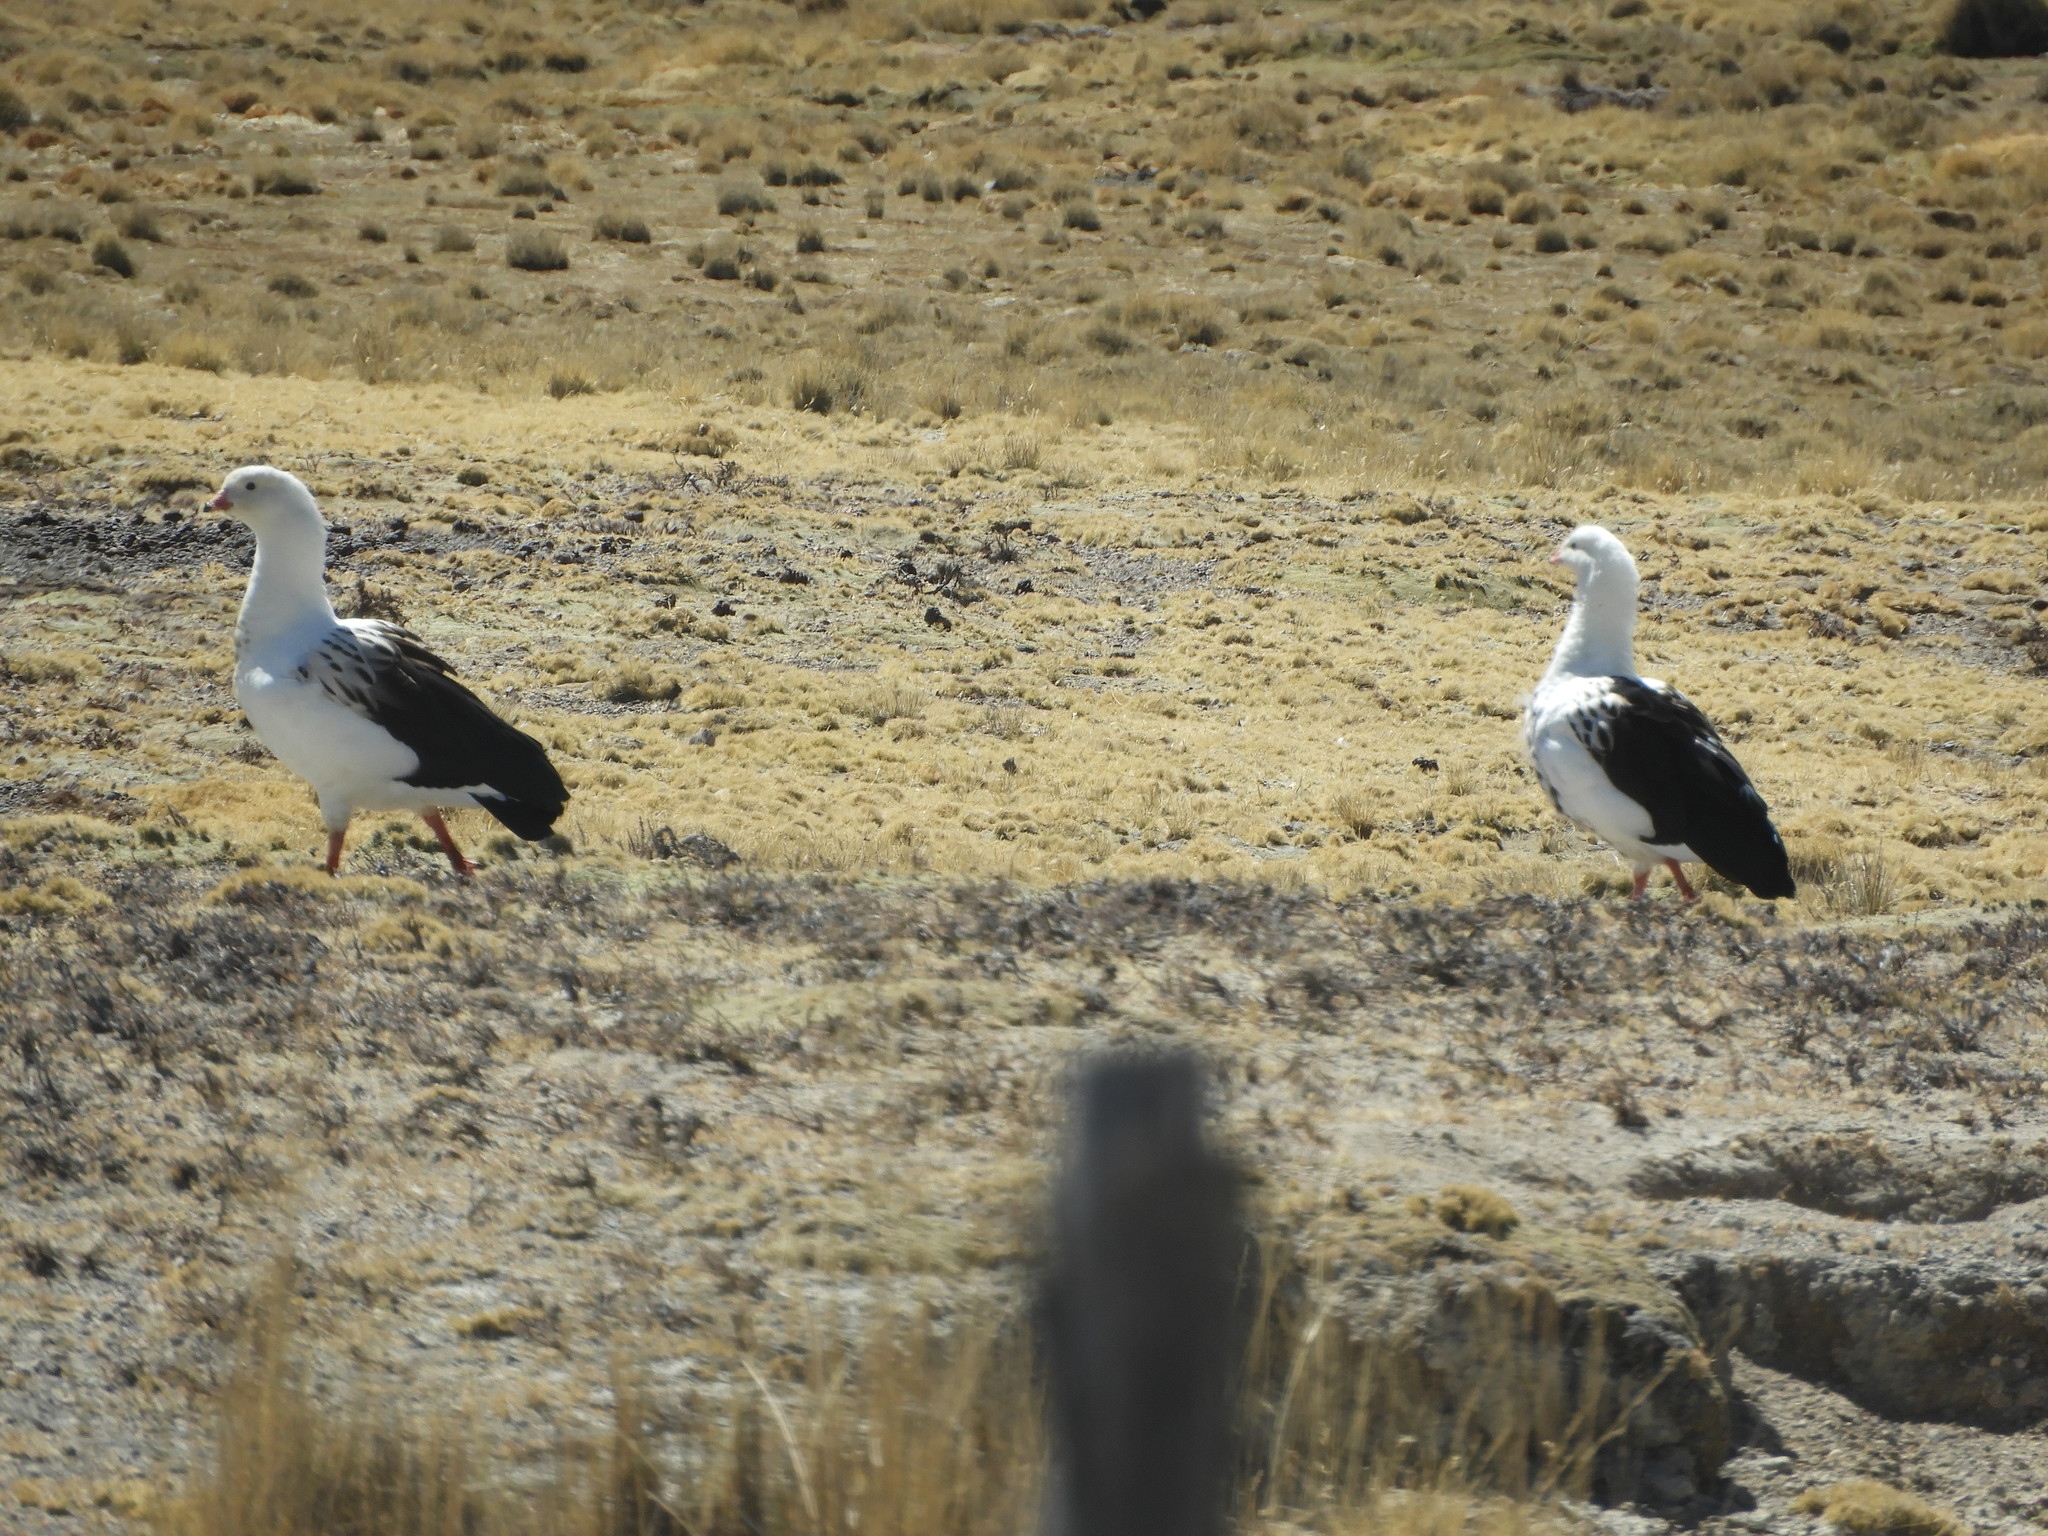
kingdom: Animalia
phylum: Chordata
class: Aves
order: Anseriformes
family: Anatidae
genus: Chloephaga
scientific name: Chloephaga melanoptera
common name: Andean goose
